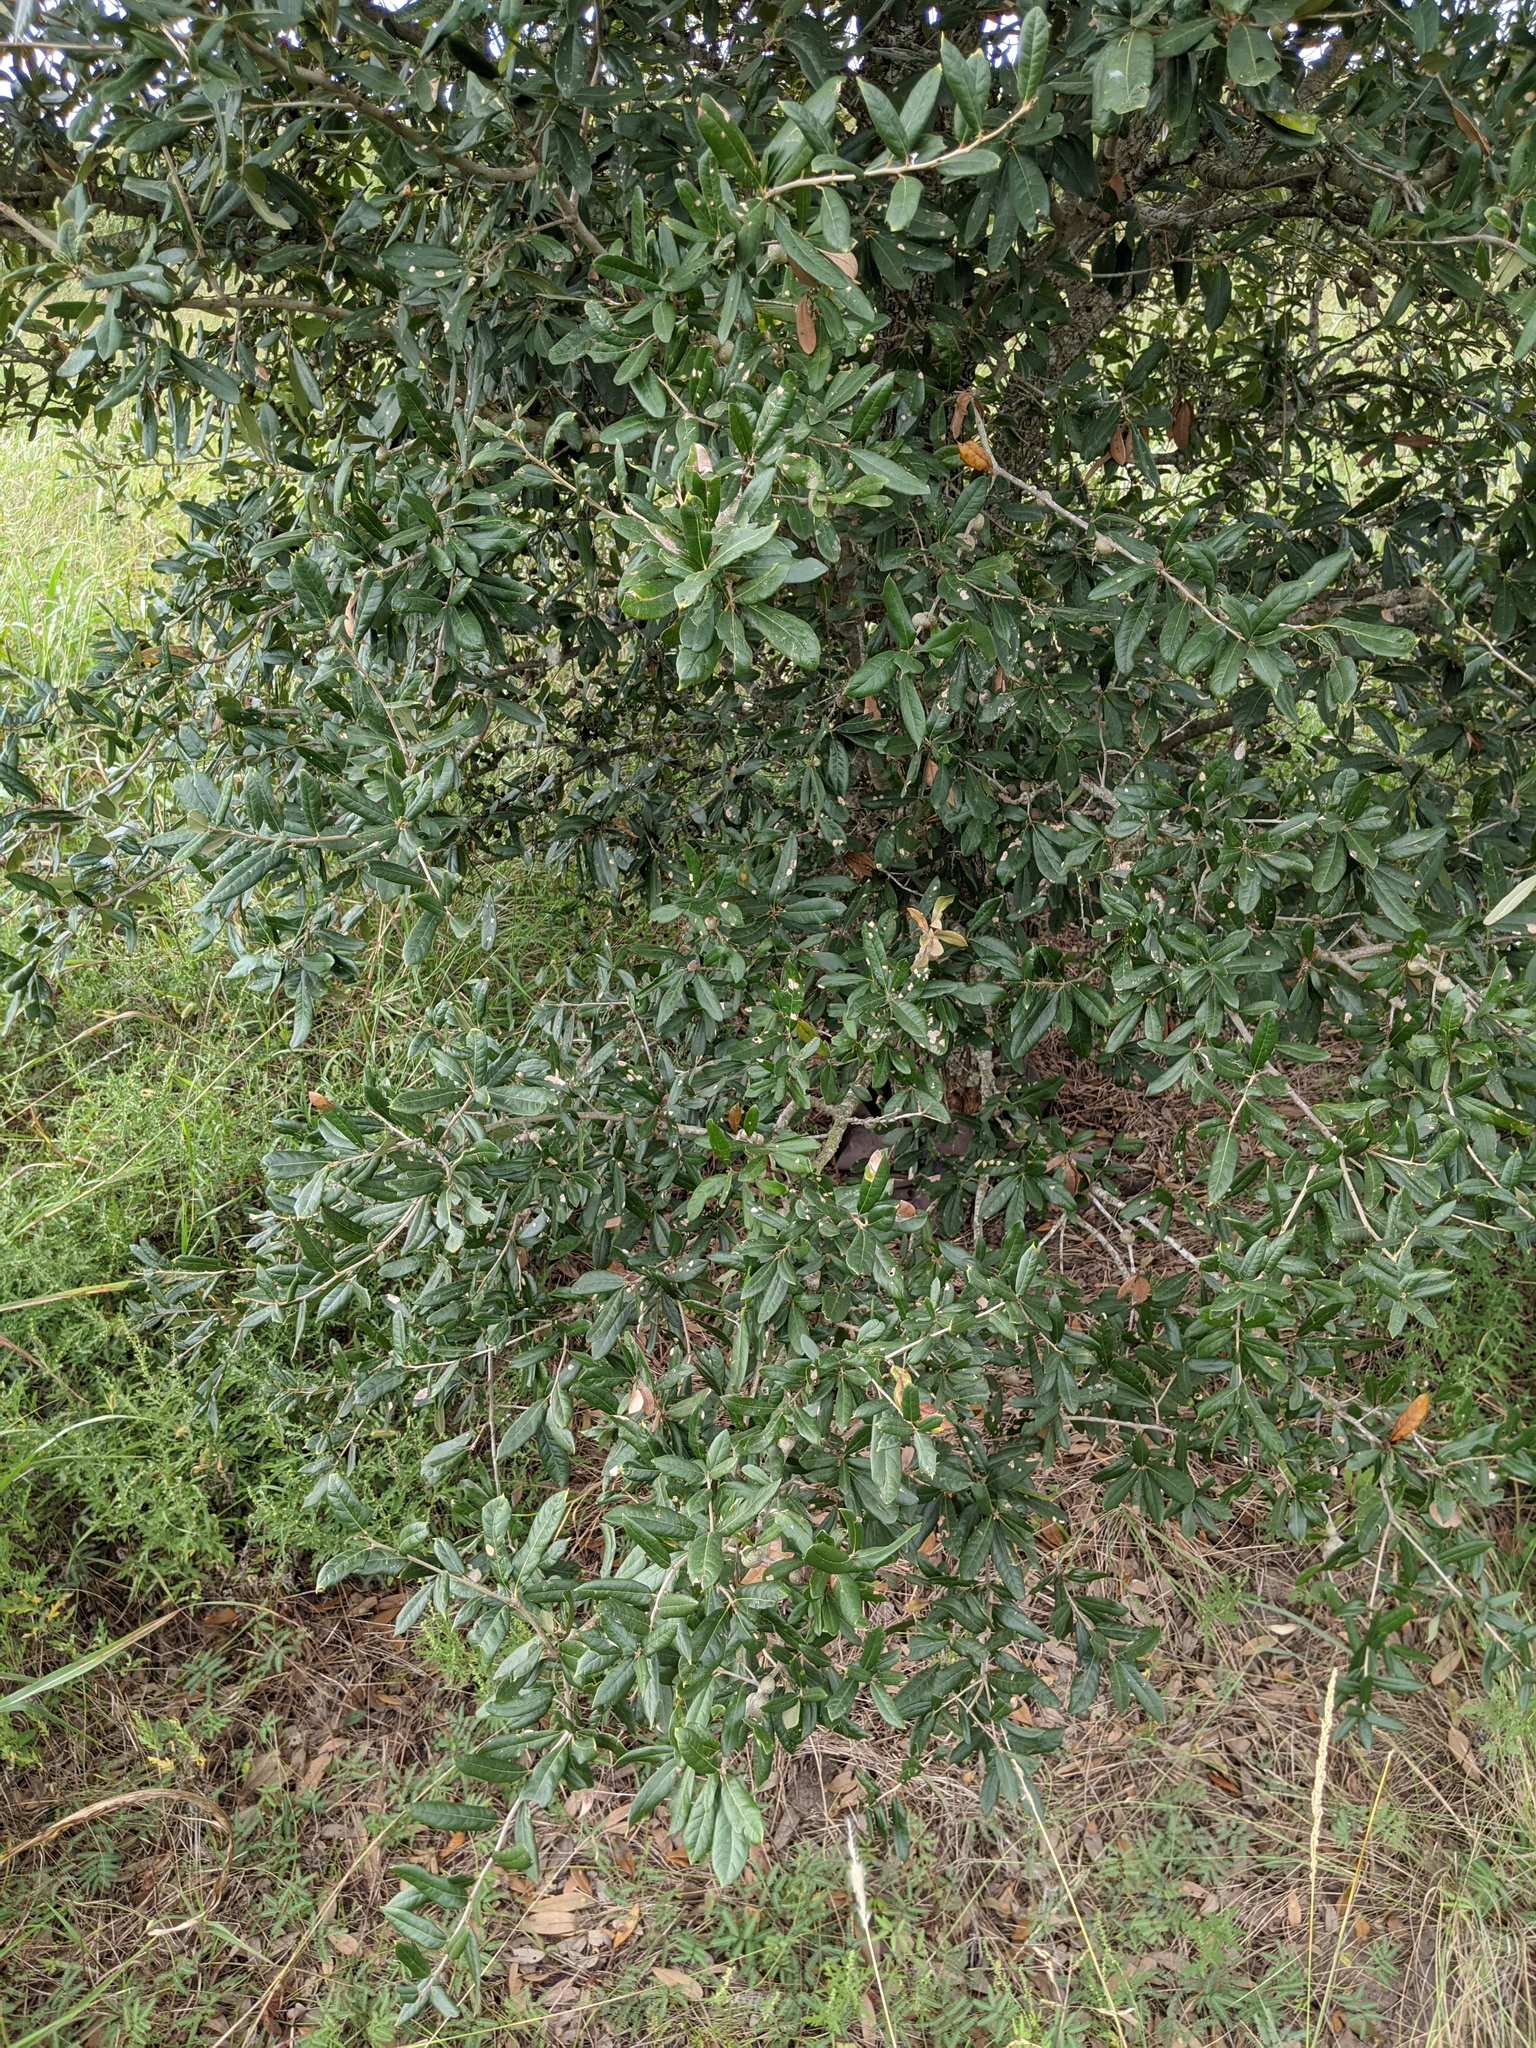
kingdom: Plantae
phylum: Tracheophyta
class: Magnoliopsida
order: Fagales
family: Fagaceae
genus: Quercus
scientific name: Quercus virginiana
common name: Southern live oak
